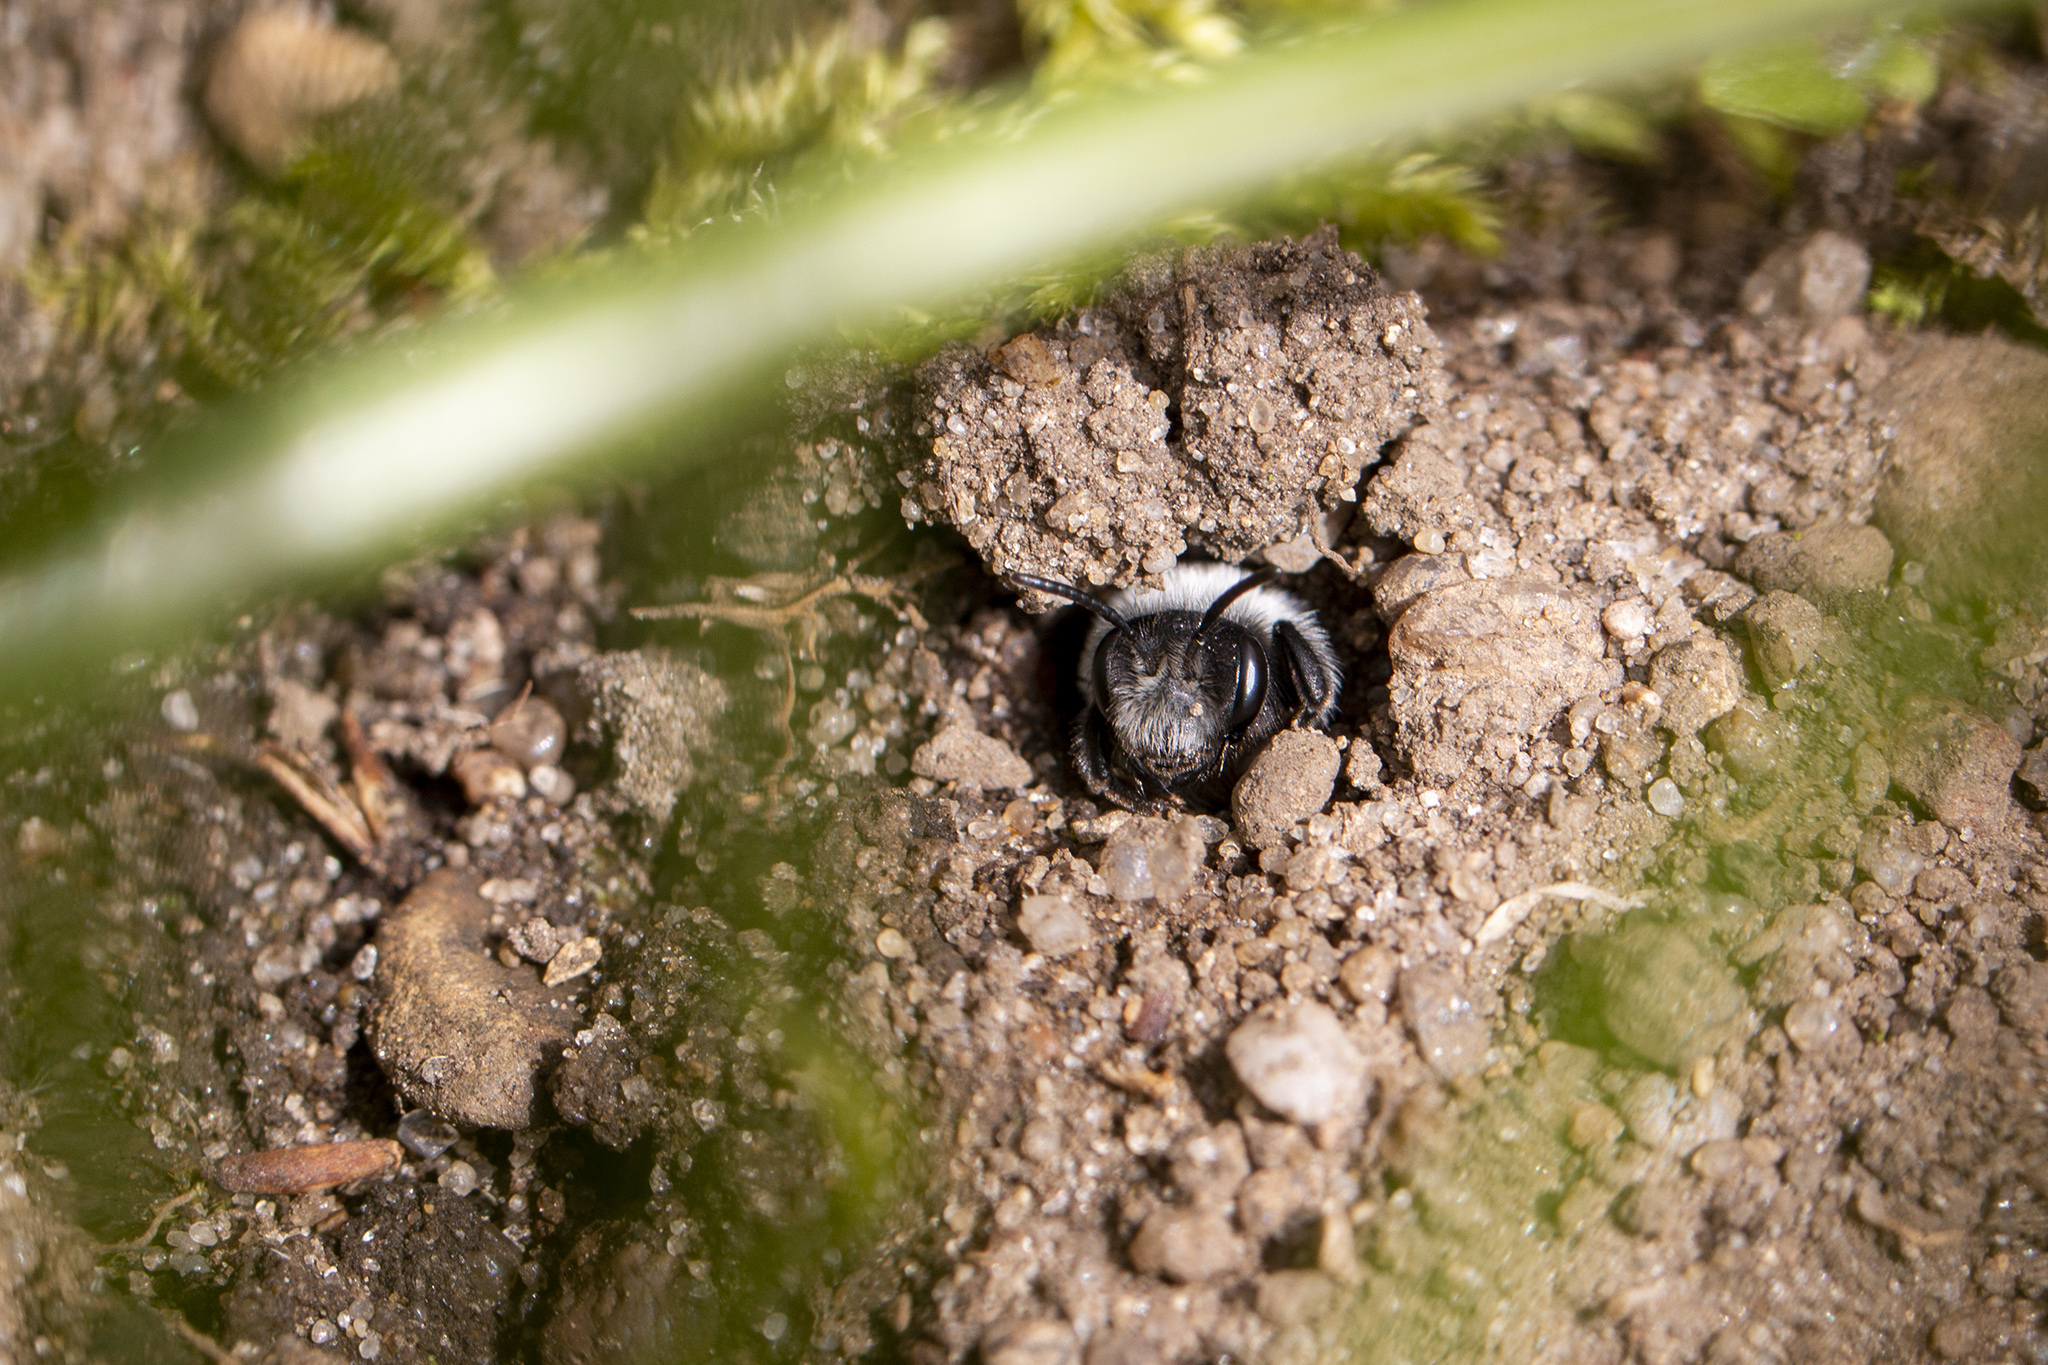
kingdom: Animalia
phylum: Arthropoda
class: Insecta
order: Hymenoptera
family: Andrenidae
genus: Andrena
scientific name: Andrena vaga
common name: Grey-backed mining bee
